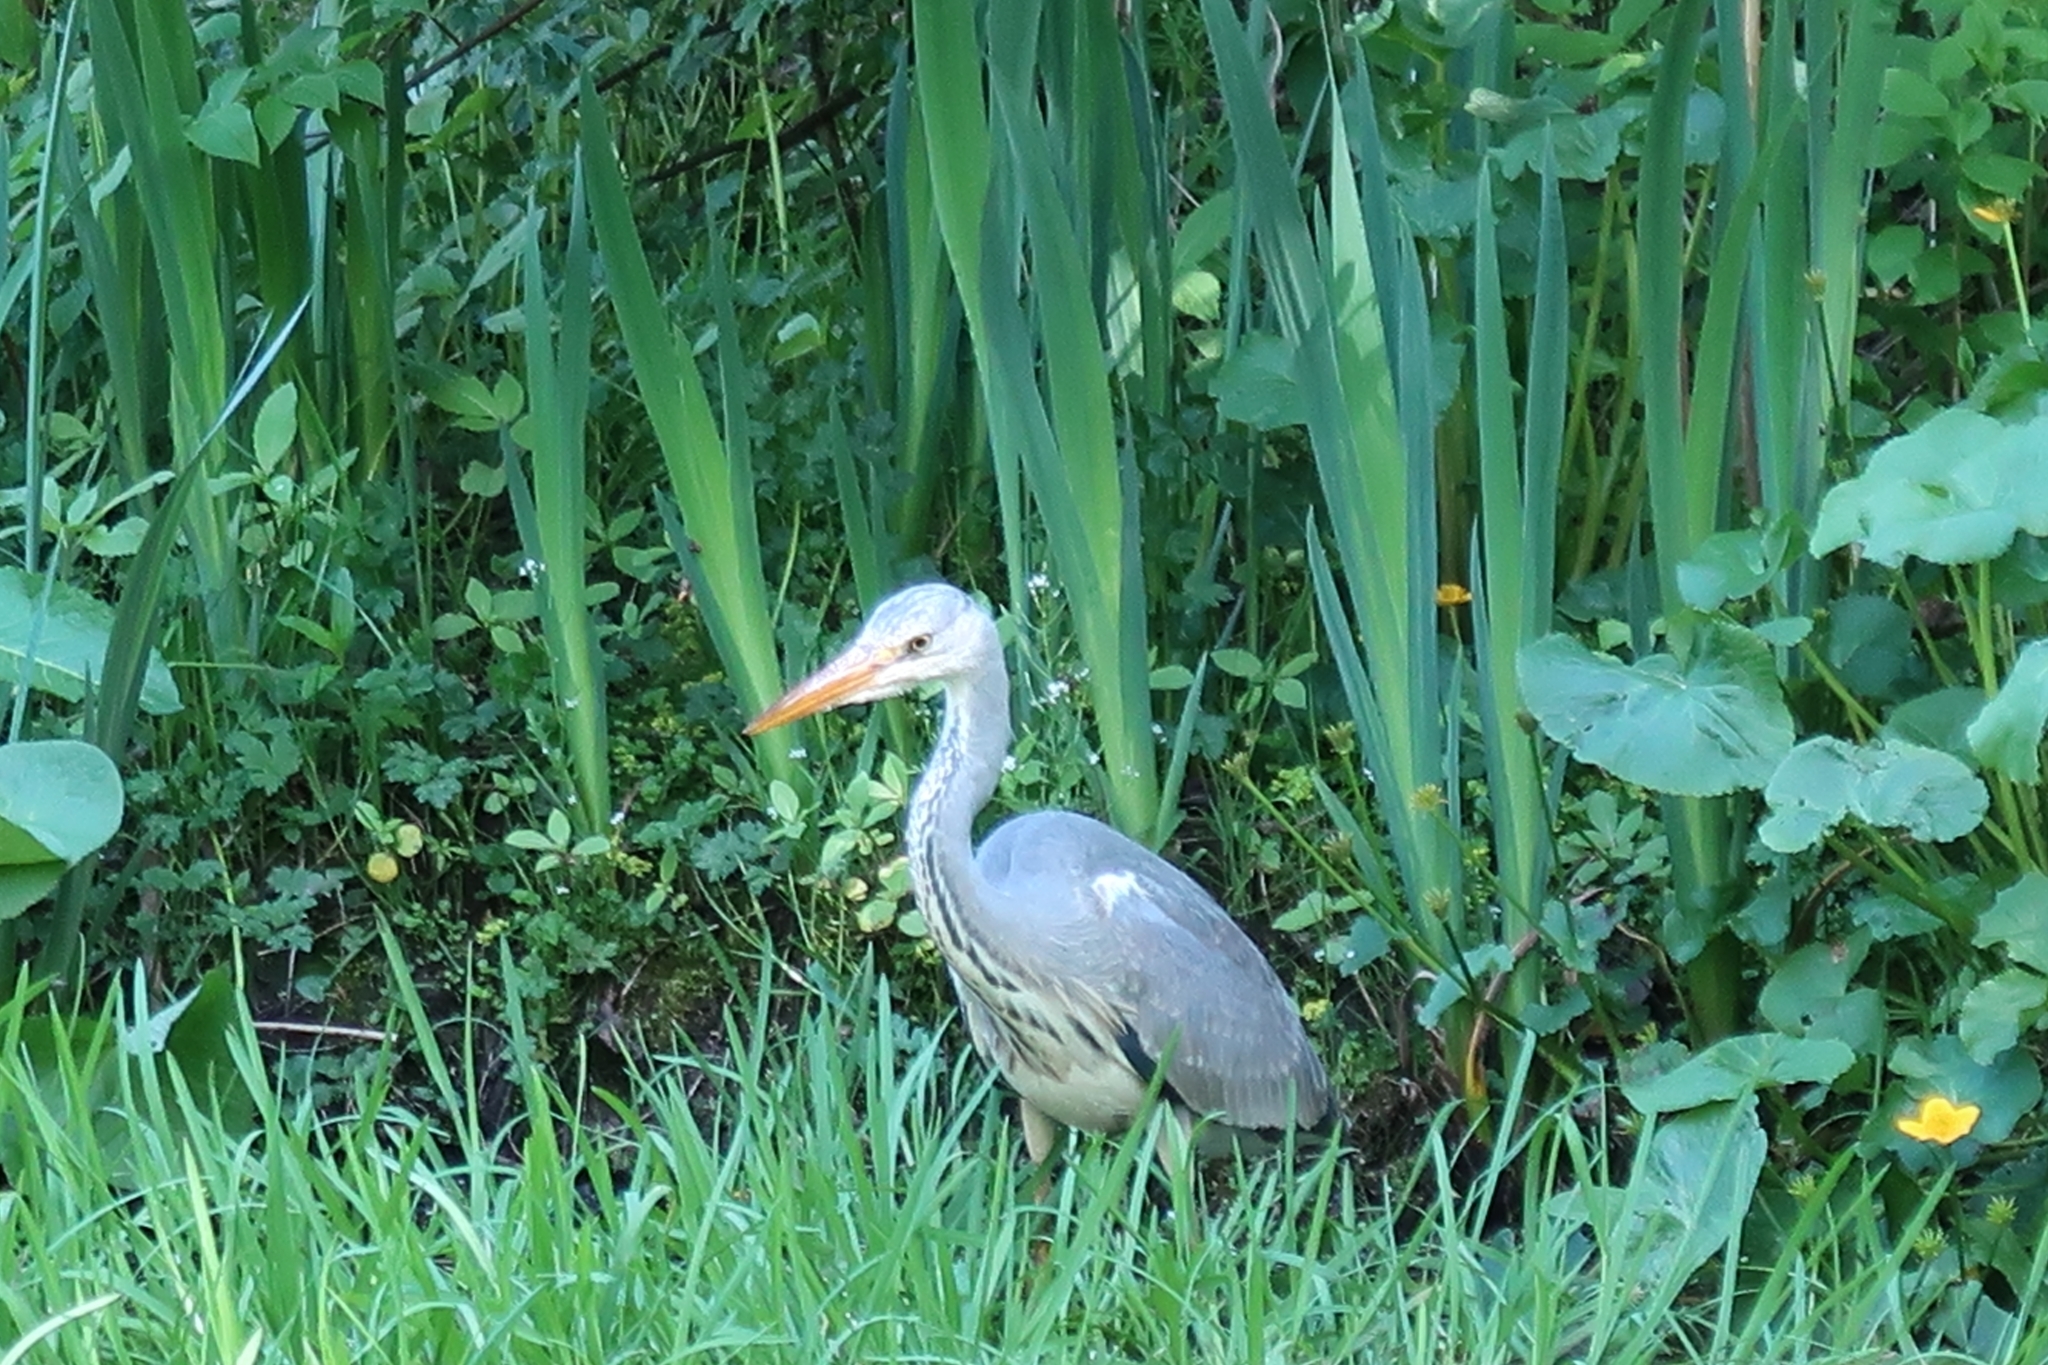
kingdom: Animalia
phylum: Chordata
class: Aves
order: Pelecaniformes
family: Ardeidae
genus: Ardea
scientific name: Ardea cinerea
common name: Grey heron
